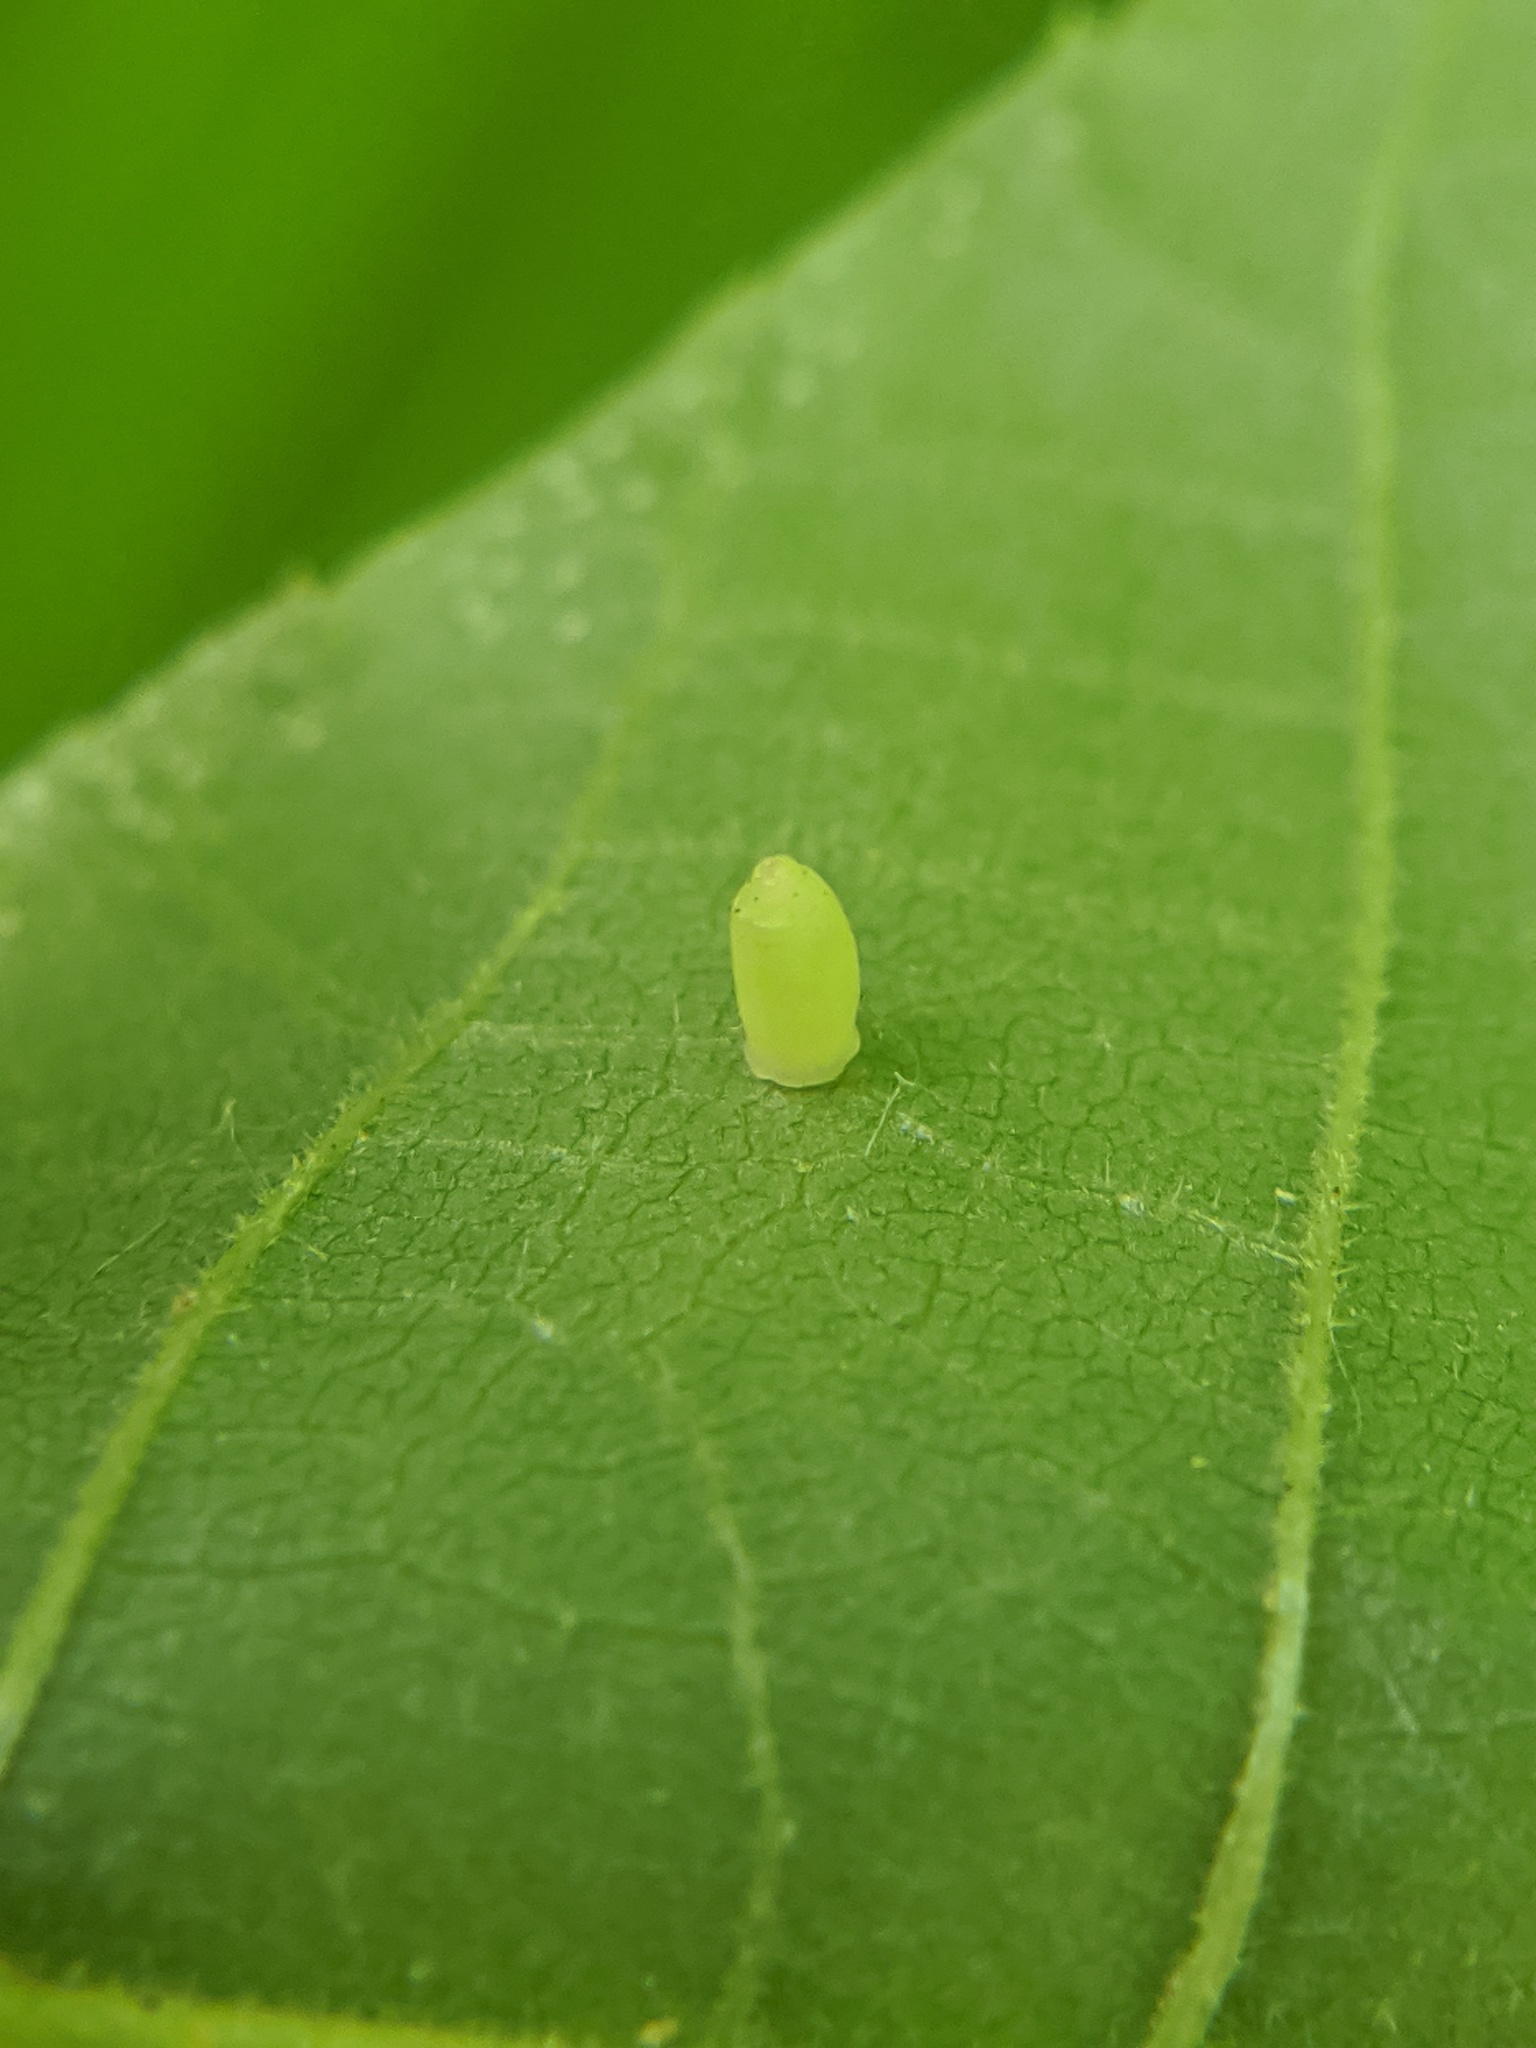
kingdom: Animalia
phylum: Arthropoda
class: Insecta
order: Diptera
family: Cecidomyiidae
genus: Caryomyia
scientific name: Caryomyia urnula
